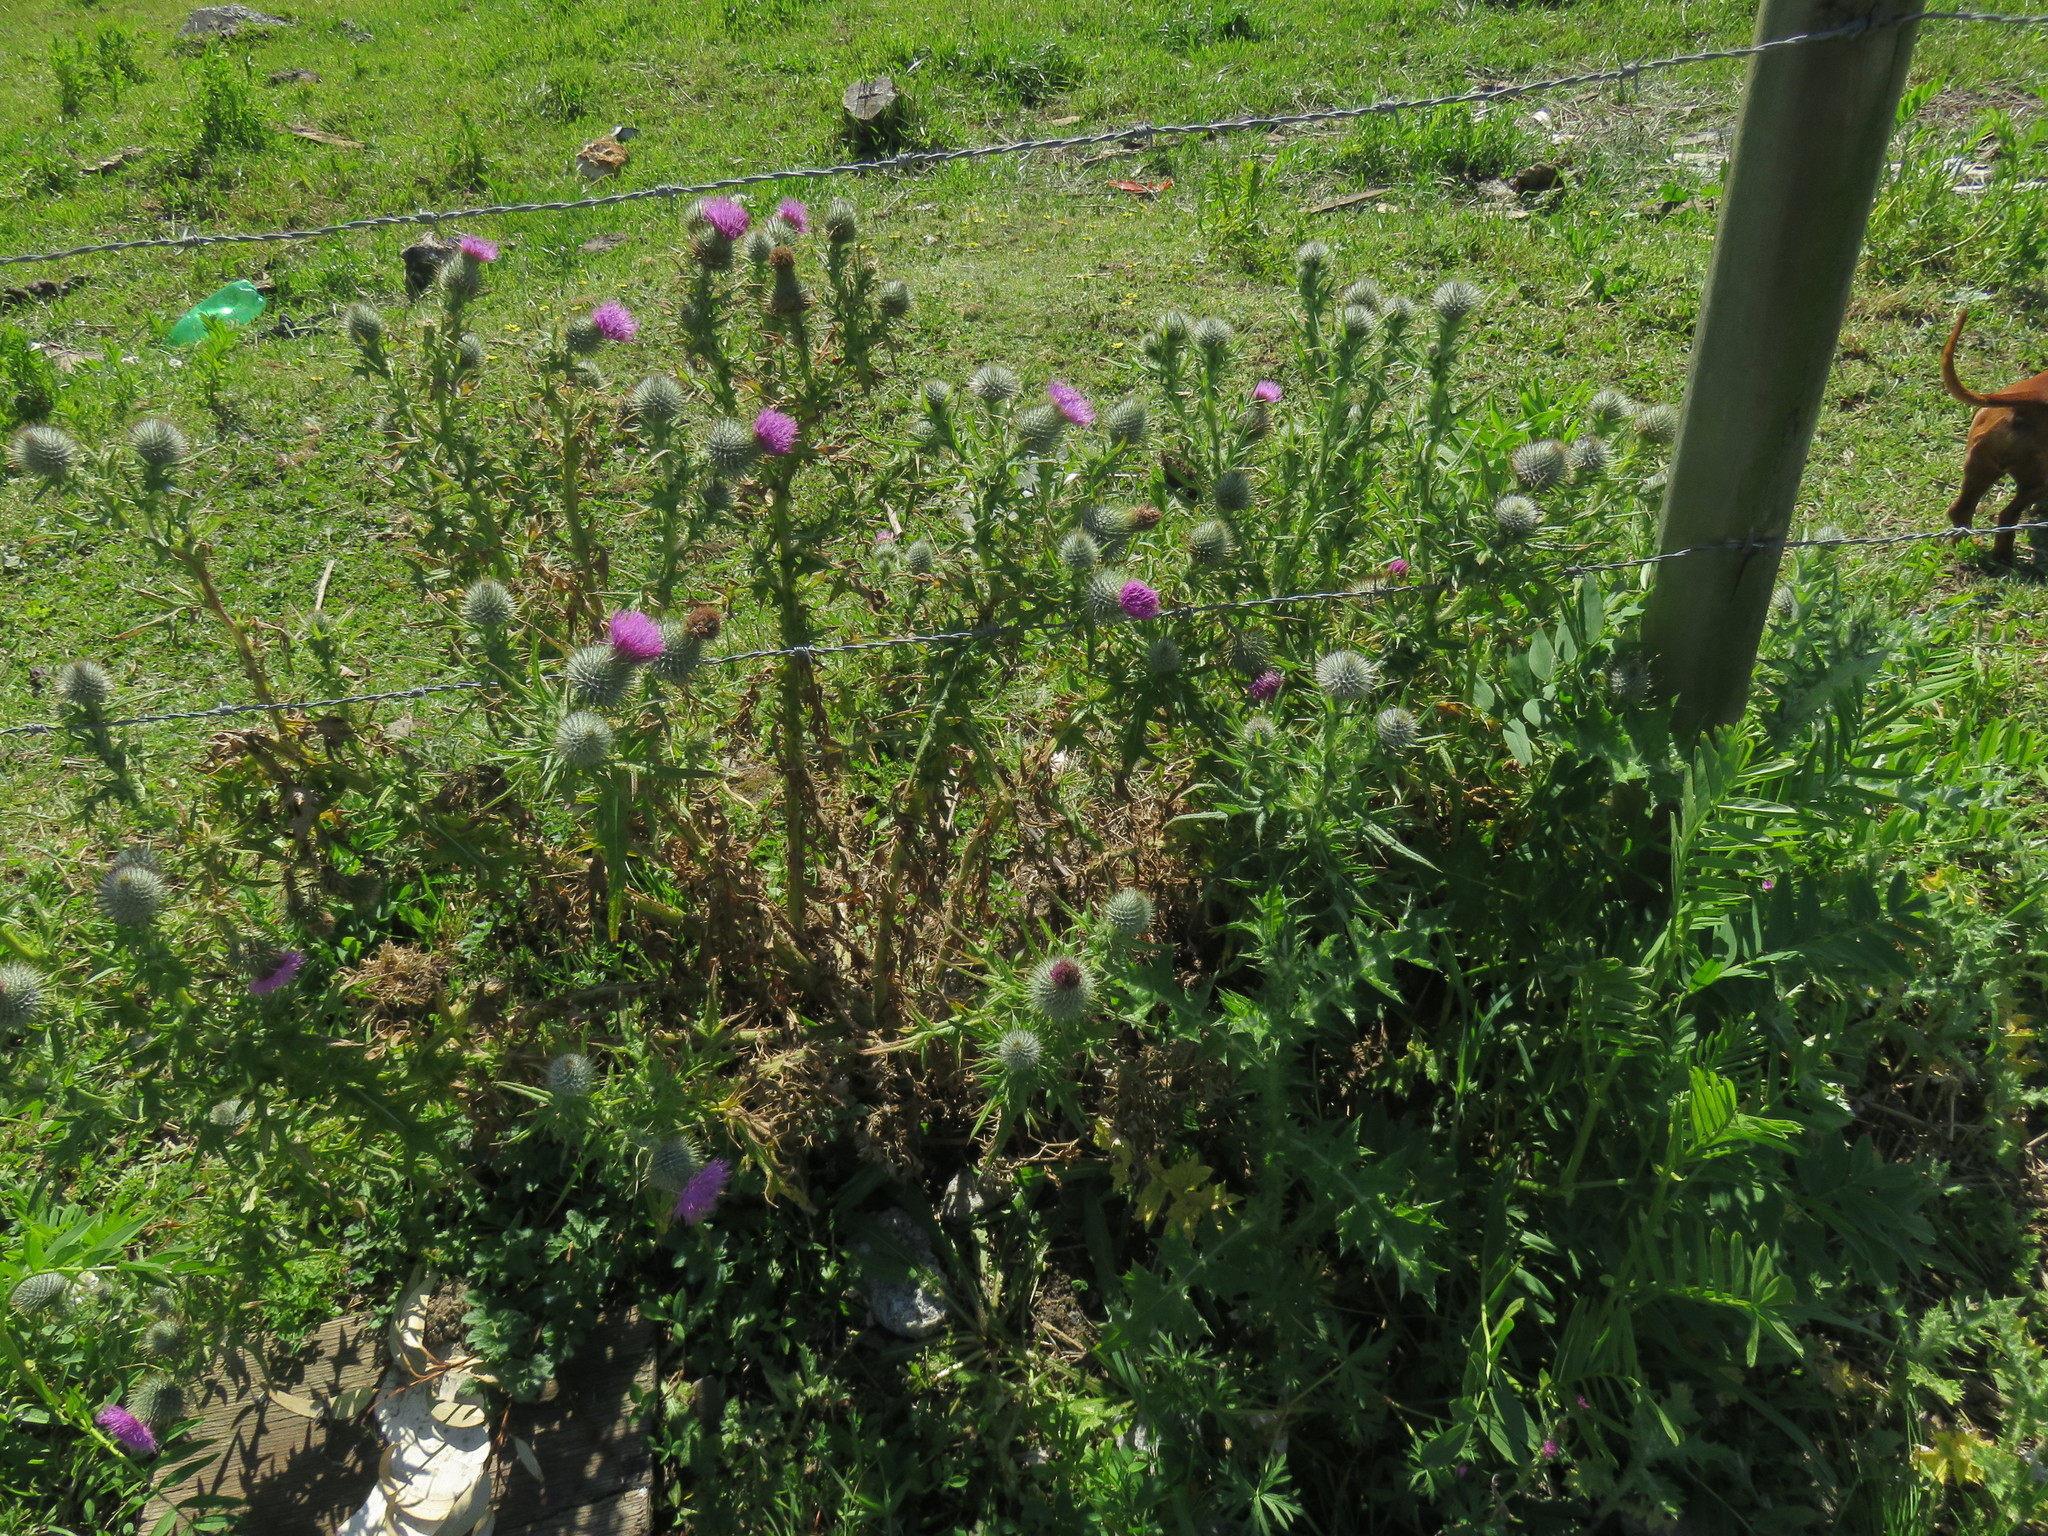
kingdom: Plantae
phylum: Tracheophyta
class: Magnoliopsida
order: Asterales
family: Asteraceae
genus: Cirsium
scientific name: Cirsium vulgare
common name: Bull thistle
